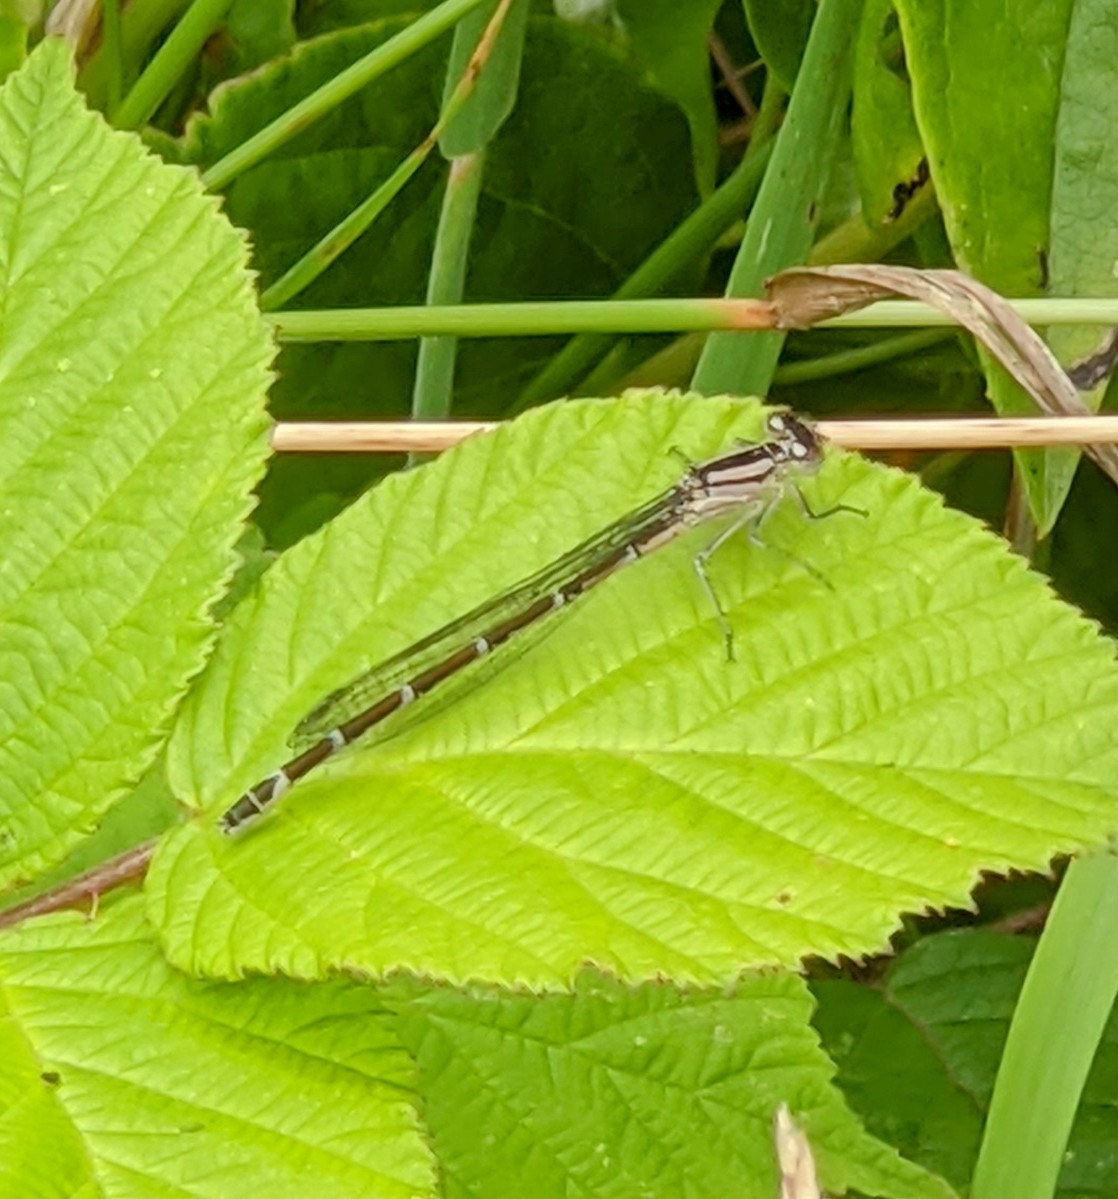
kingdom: Animalia
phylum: Arthropoda
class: Insecta
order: Odonata
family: Coenagrionidae
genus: Enallagma
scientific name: Enallagma cyathigerum
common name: Common blue damselfly
